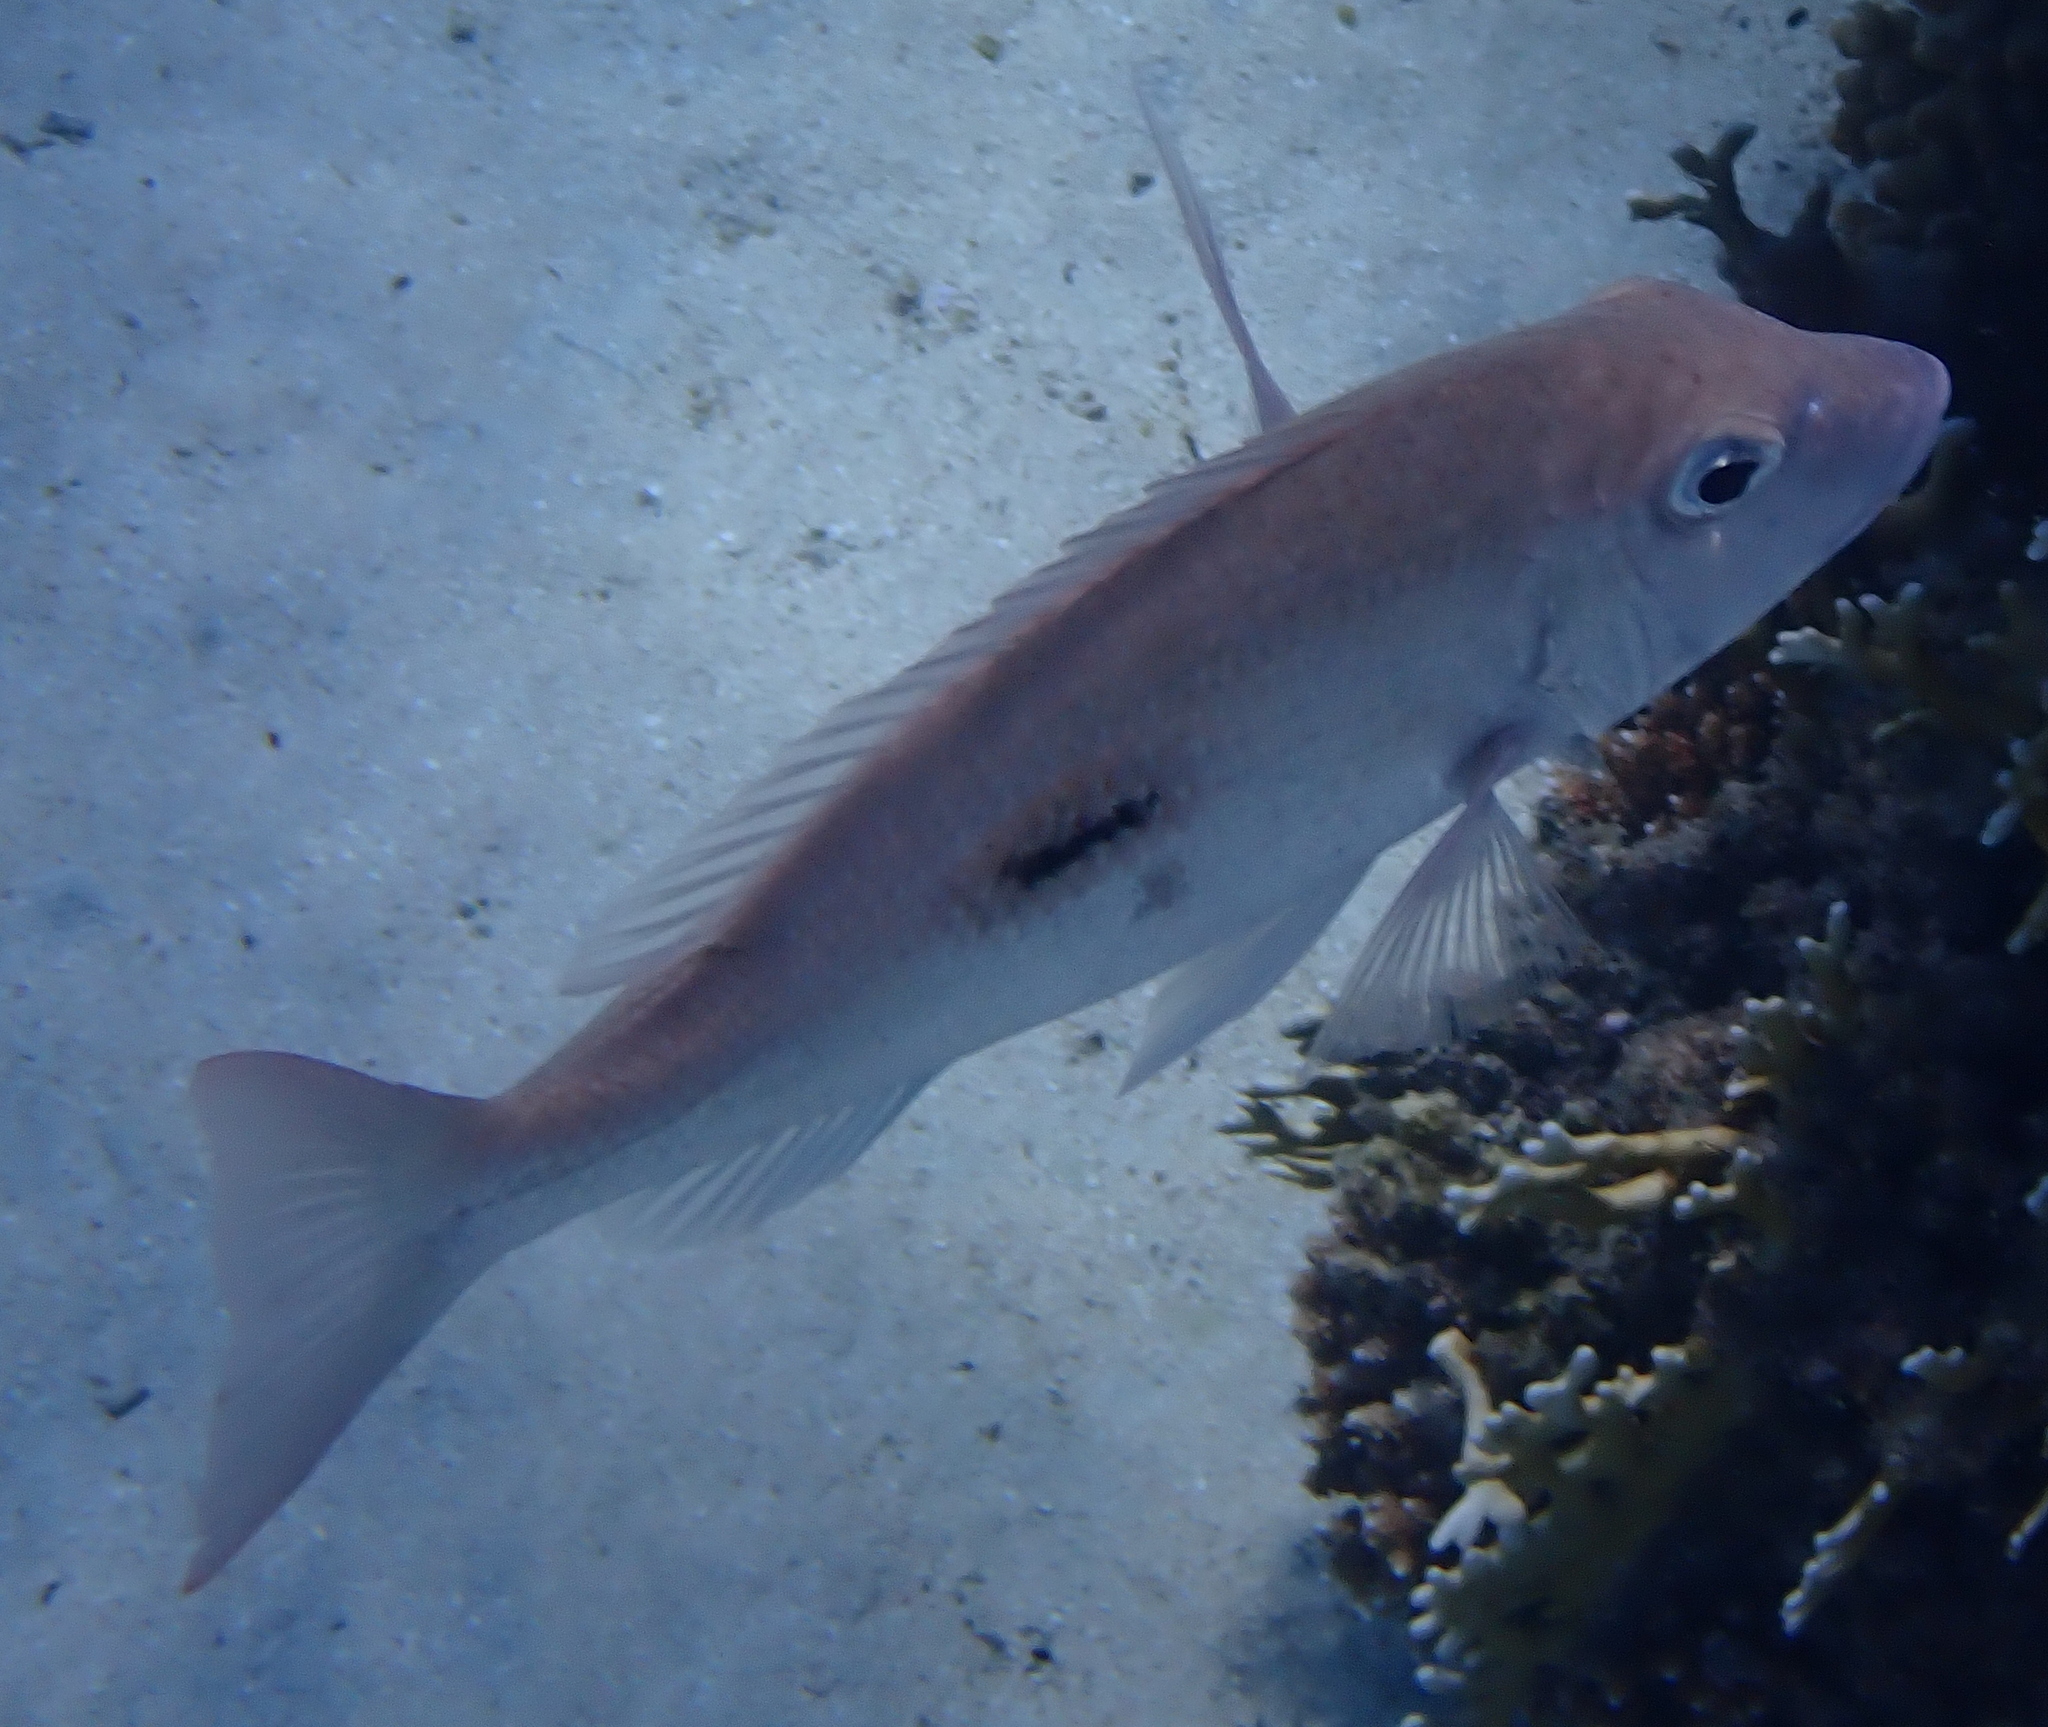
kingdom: Animalia
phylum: Chordata
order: Perciformes
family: Lethrinidae
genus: Lethrinus
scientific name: Lethrinus harak
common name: Blackspot emperor
